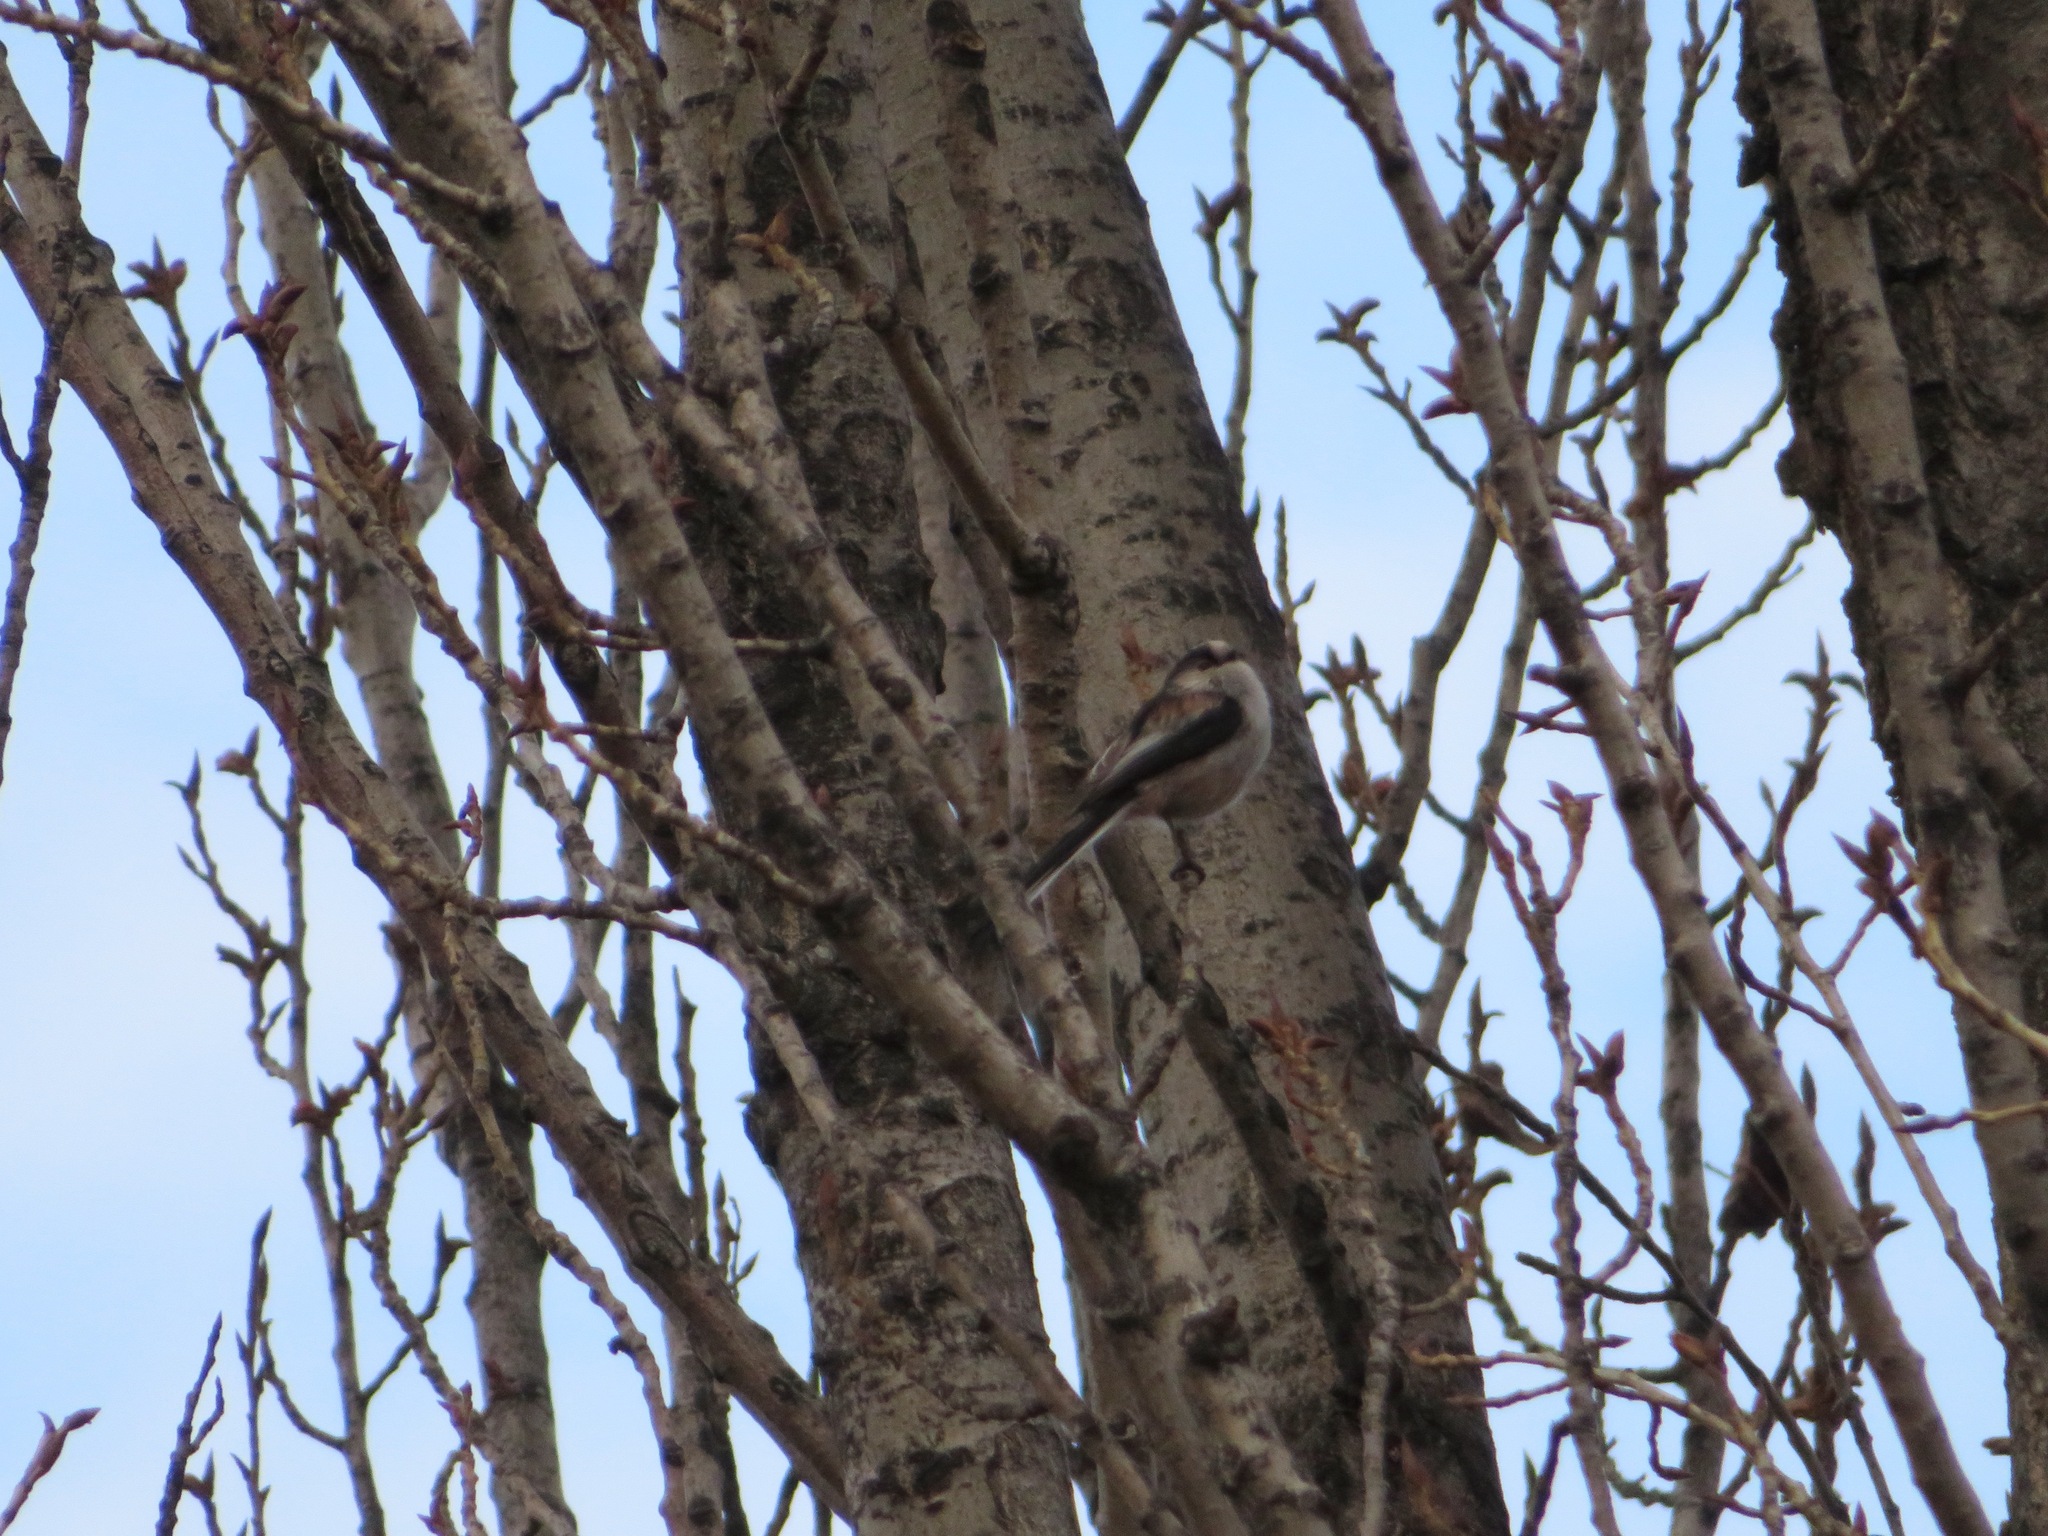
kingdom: Animalia
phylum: Chordata
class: Aves
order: Passeriformes
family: Aegithalidae
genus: Aegithalos
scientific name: Aegithalos caudatus
